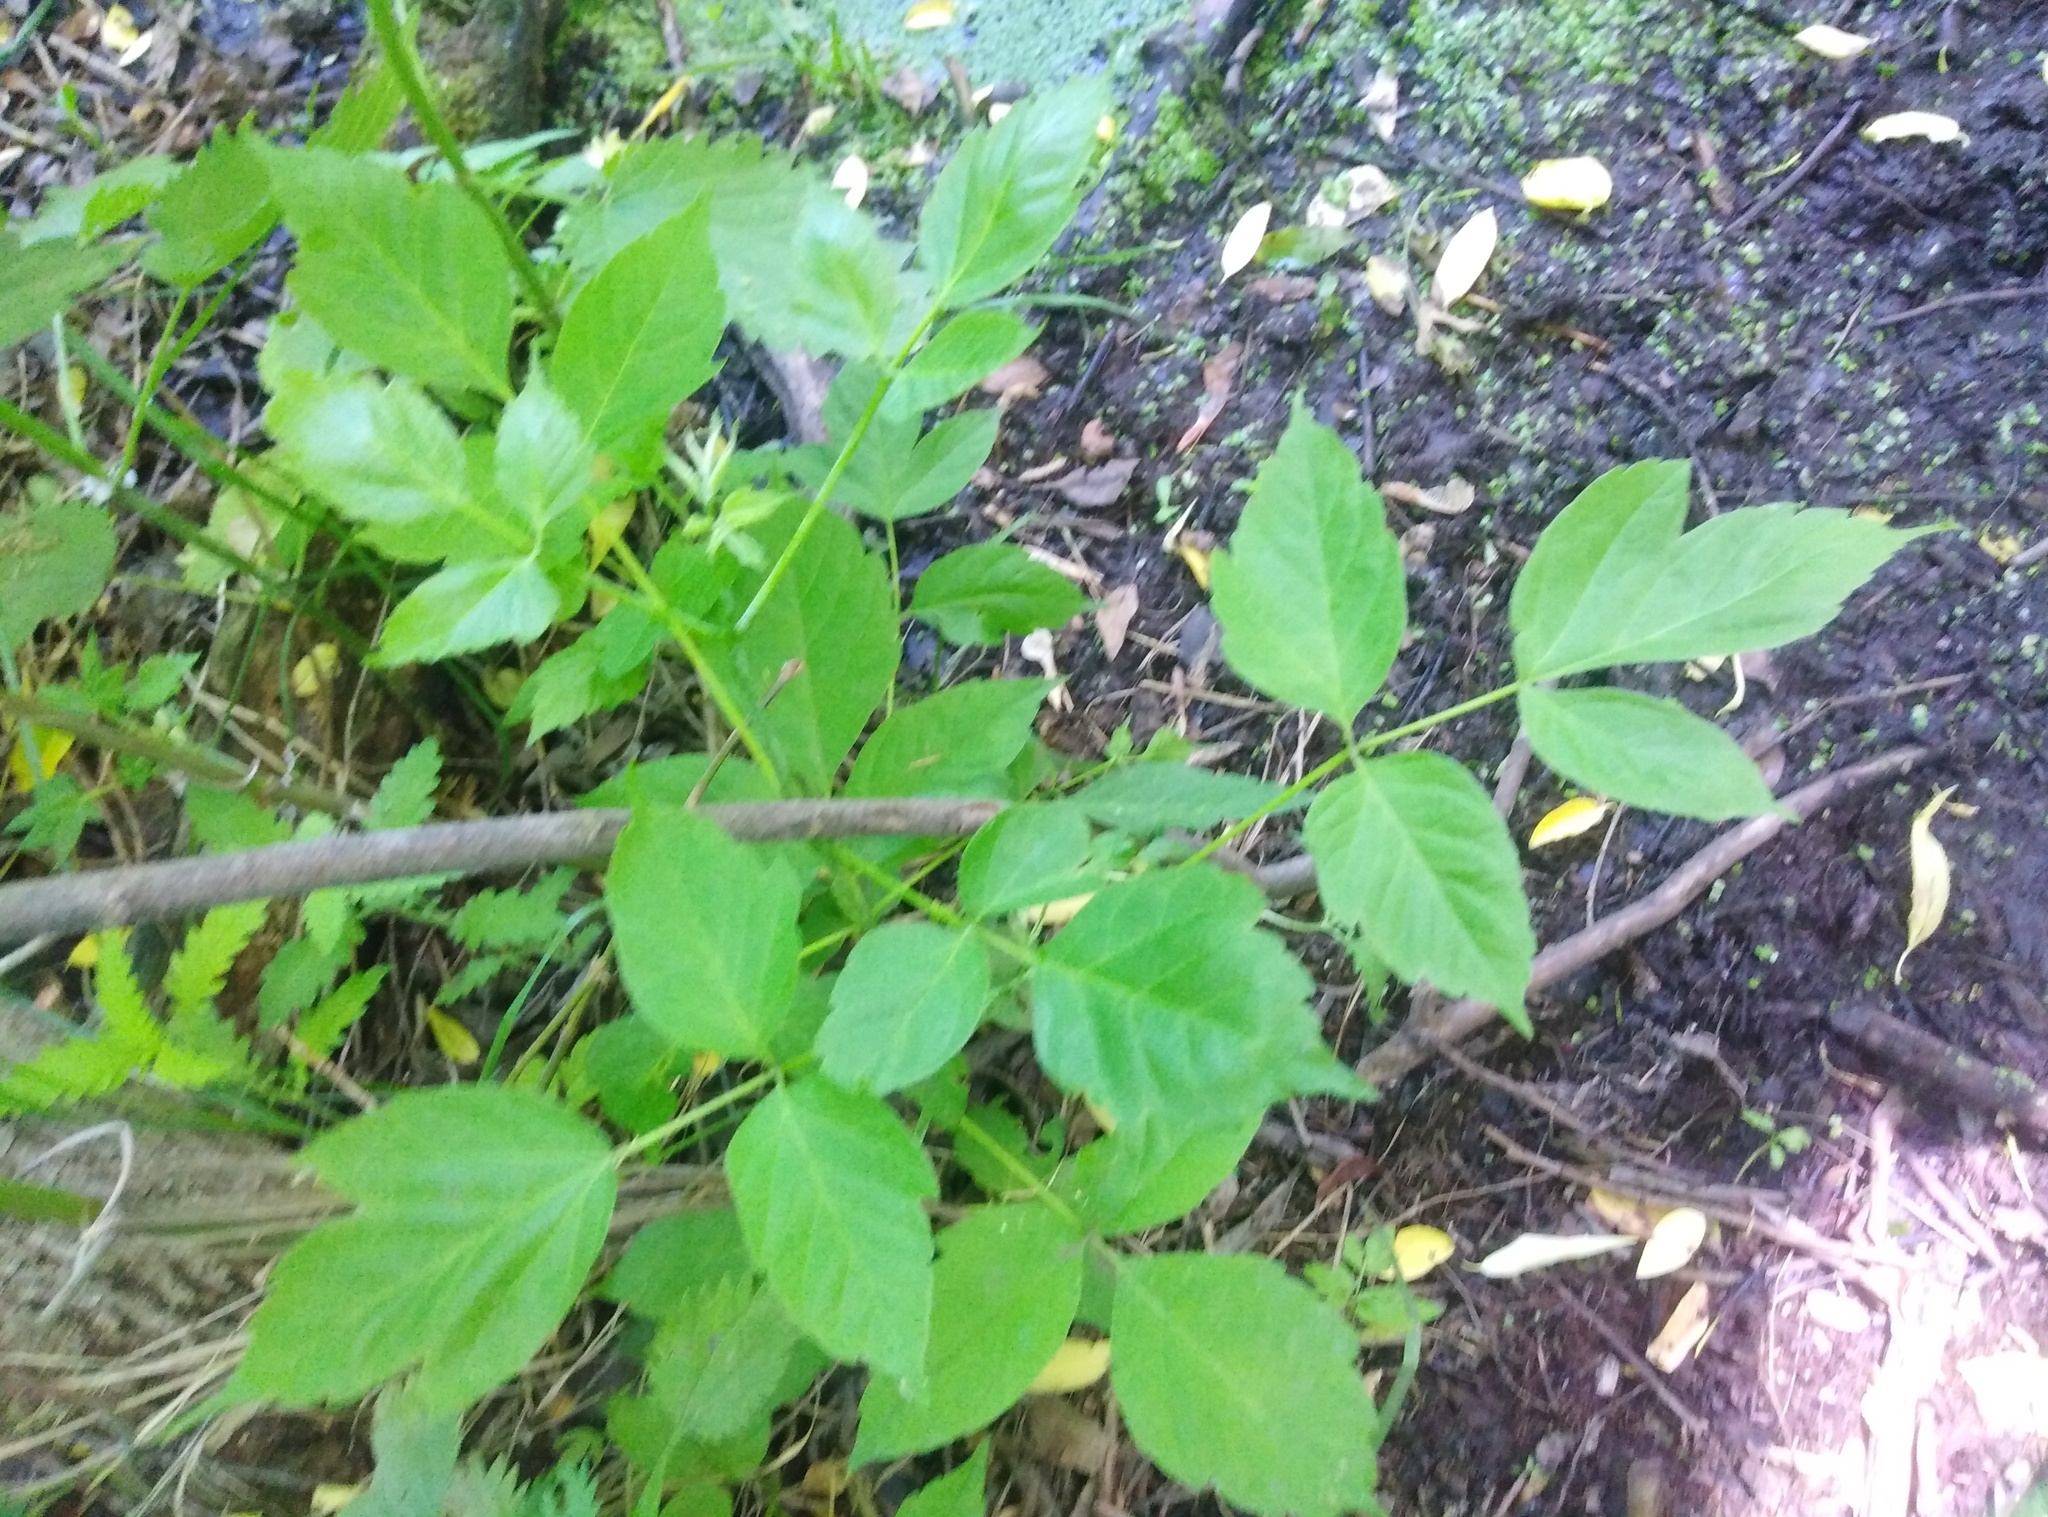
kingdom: Plantae
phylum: Tracheophyta
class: Magnoliopsida
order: Sapindales
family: Sapindaceae
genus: Acer
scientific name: Acer negundo
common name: Ashleaf maple
